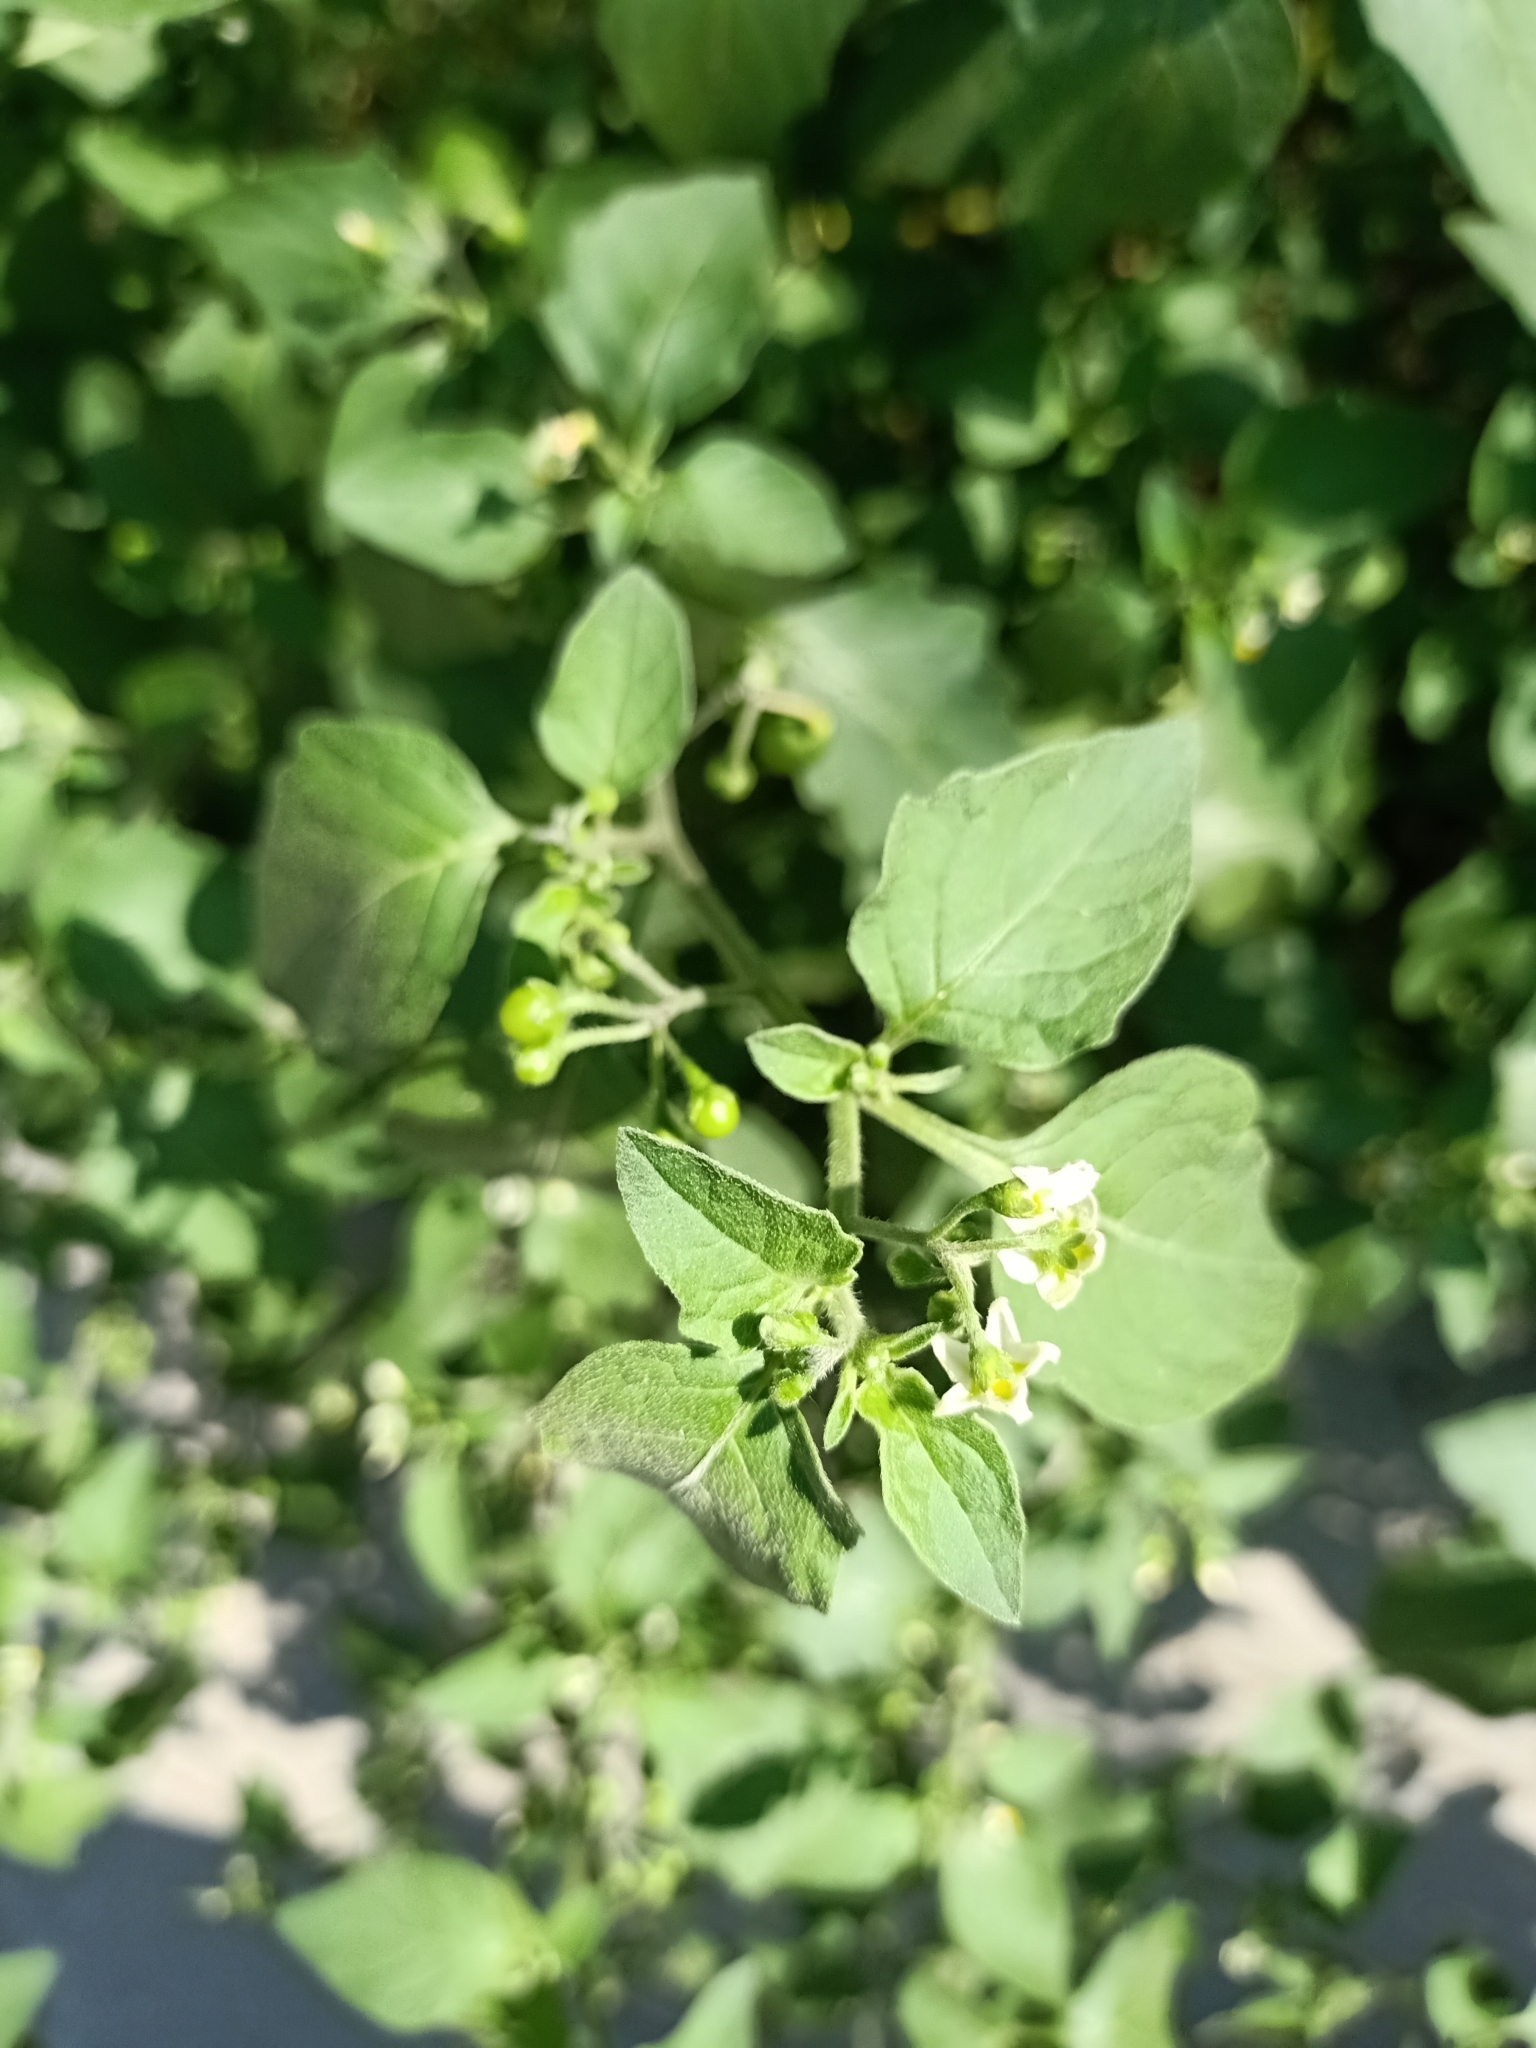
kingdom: Plantae
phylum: Tracheophyta
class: Magnoliopsida
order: Solanales
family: Solanaceae
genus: Solanum
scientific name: Solanum nigrum
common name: Black nightshade
